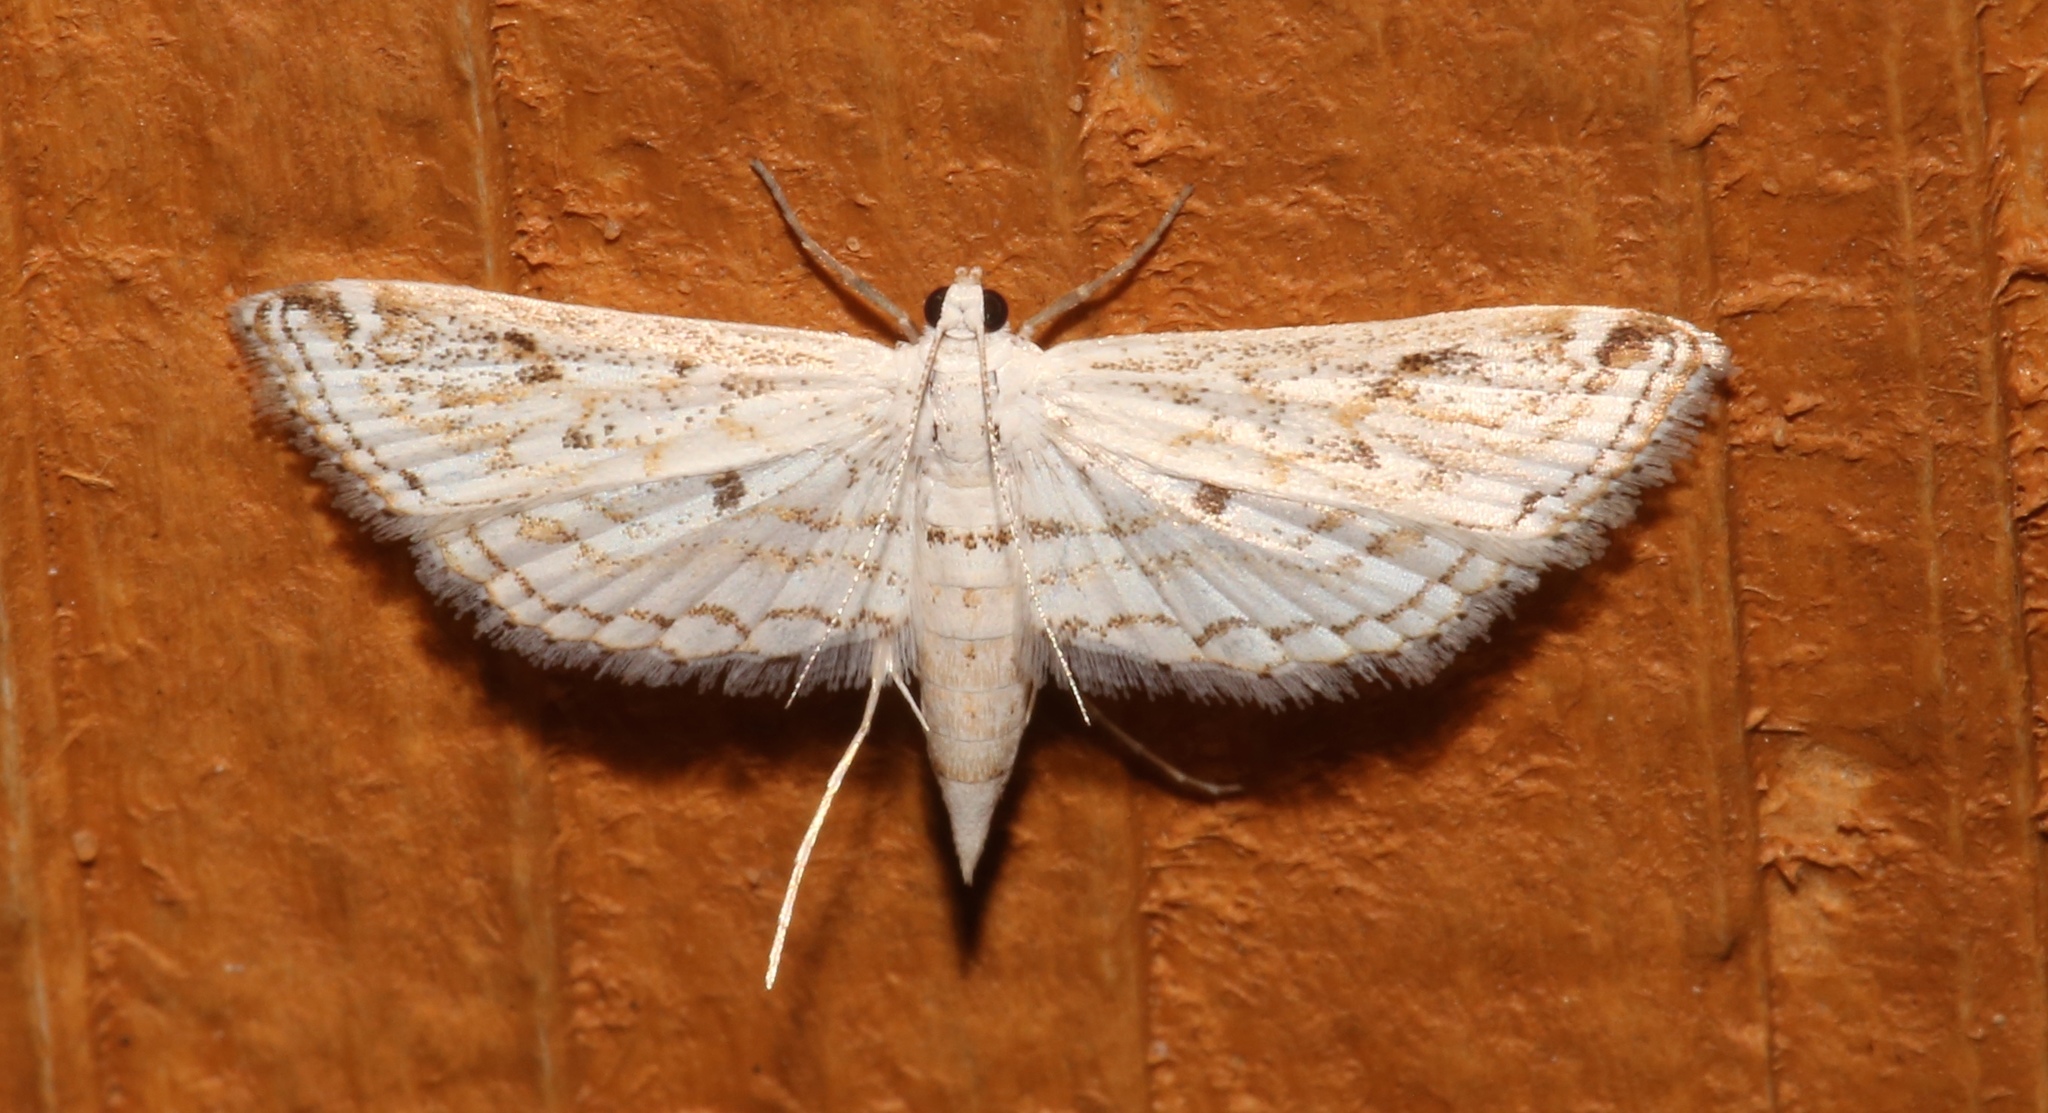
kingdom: Animalia
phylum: Arthropoda
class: Insecta
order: Lepidoptera
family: Crambidae
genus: Parapoynx
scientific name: Parapoynx allionealis
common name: Bladderwort casemaker
